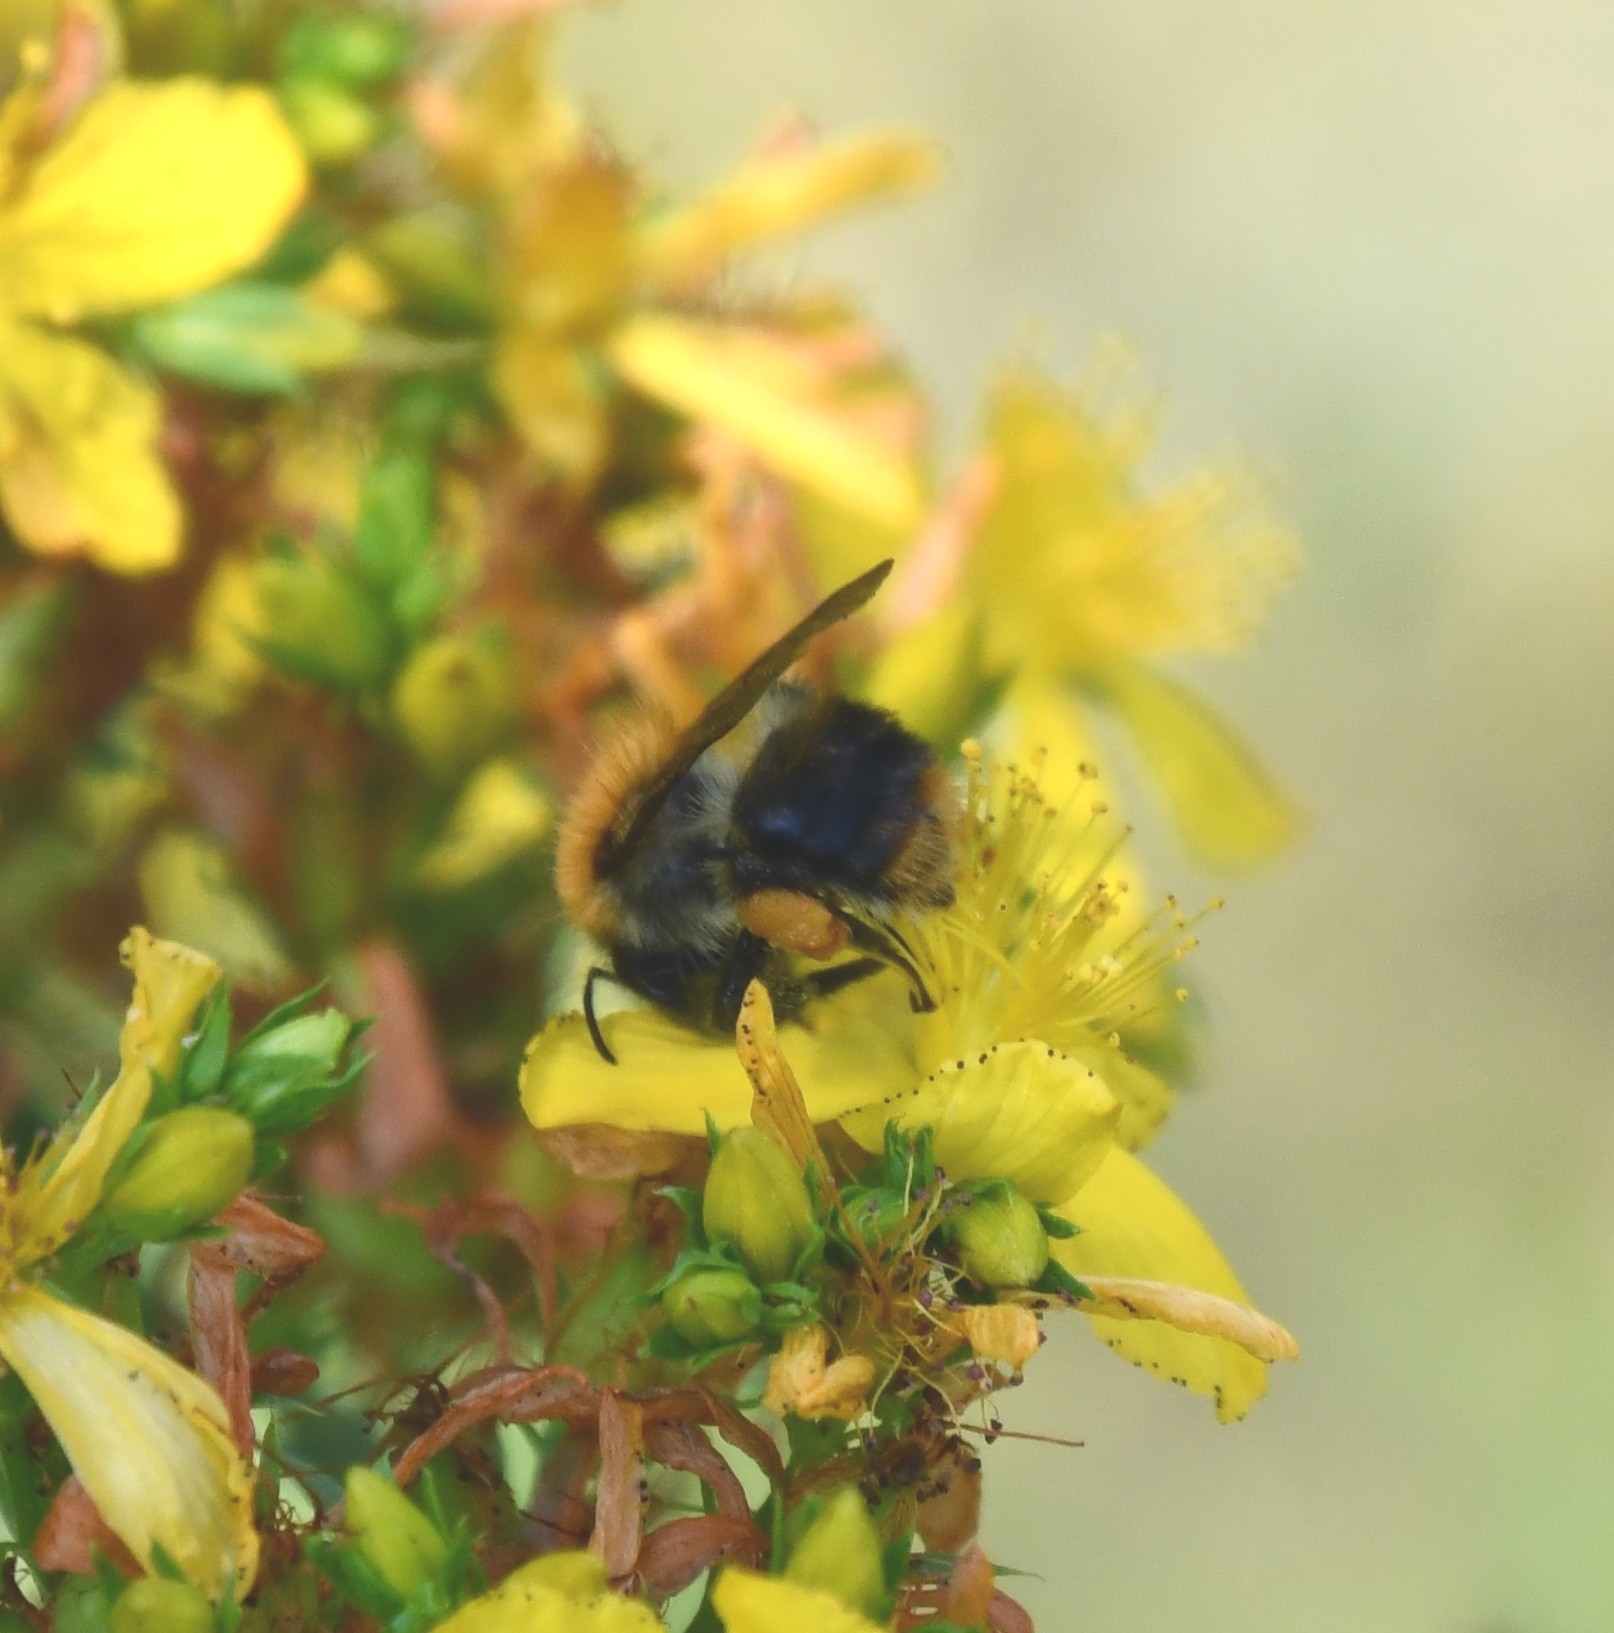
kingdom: Animalia
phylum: Arthropoda
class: Insecta
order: Hymenoptera
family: Apidae
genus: Bombus
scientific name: Bombus pascuorum
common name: Common carder bee
